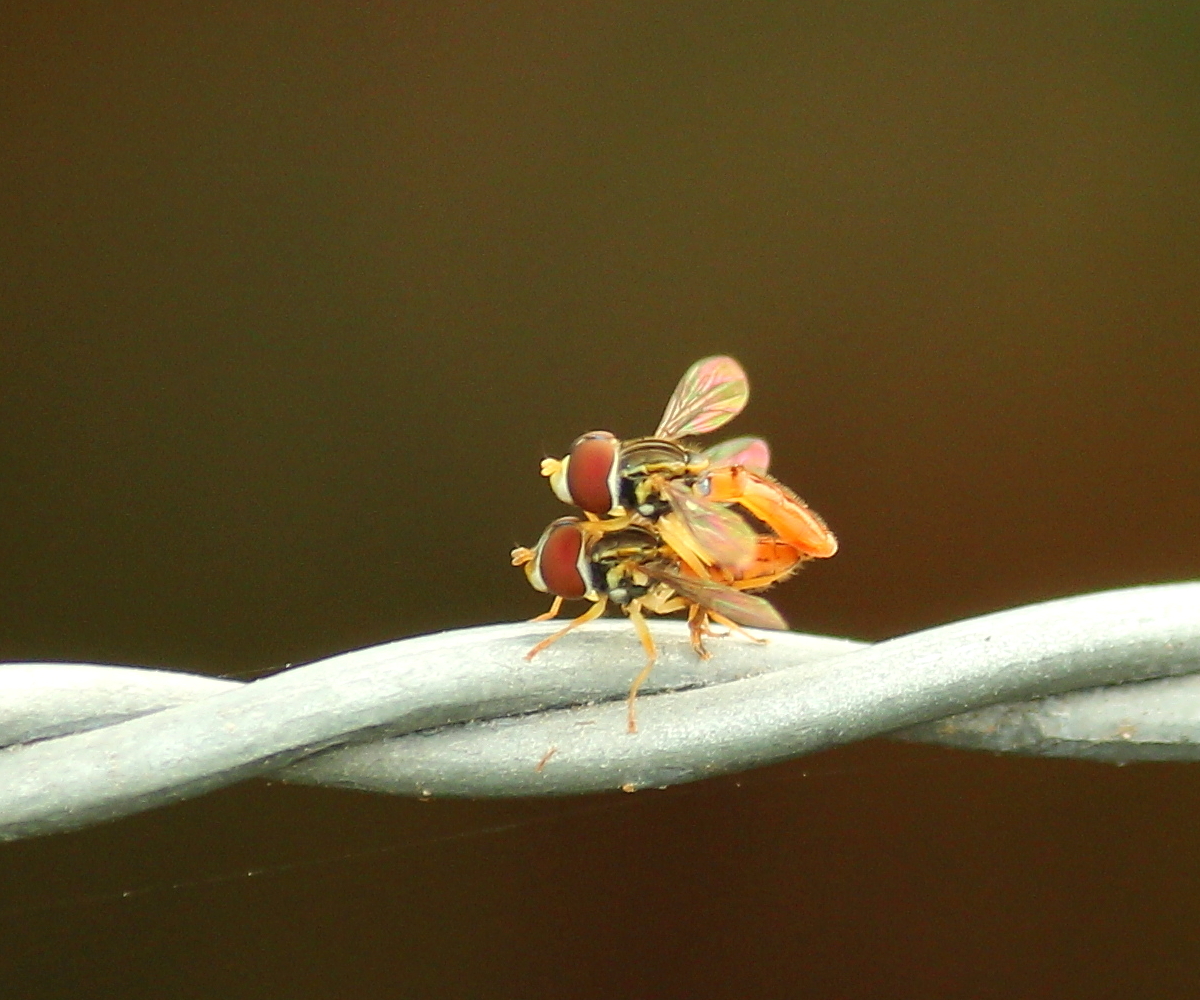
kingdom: Animalia
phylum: Arthropoda
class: Insecta
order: Diptera
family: Syrphidae
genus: Toxomerus
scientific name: Toxomerus boscii
